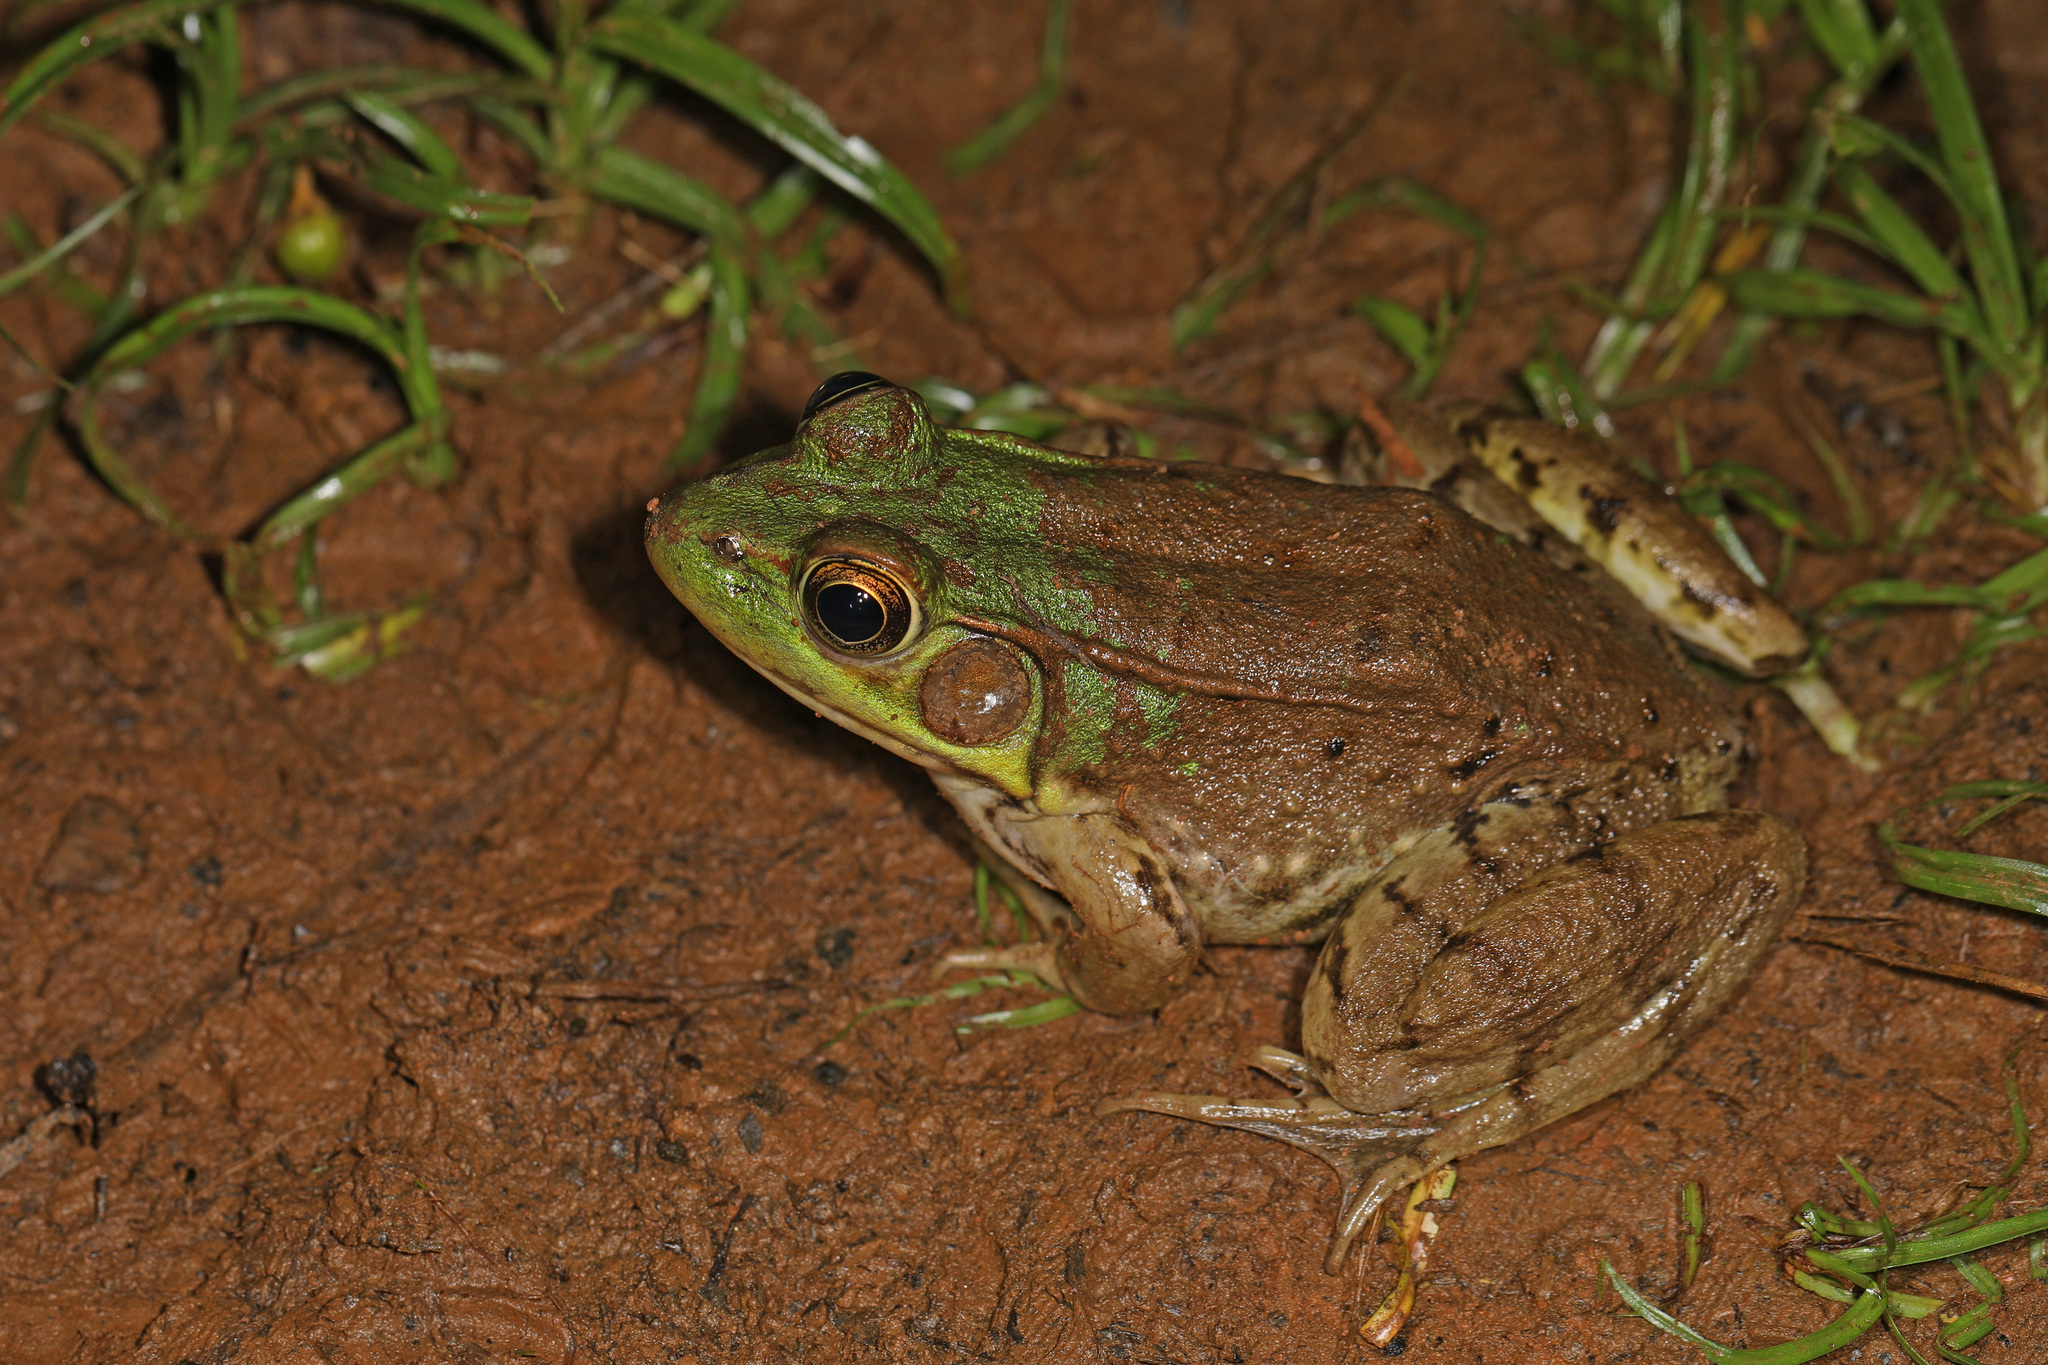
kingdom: Animalia
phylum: Chordata
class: Amphibia
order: Anura
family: Ranidae
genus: Lithobates
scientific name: Lithobates clamitans
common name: Green frog
